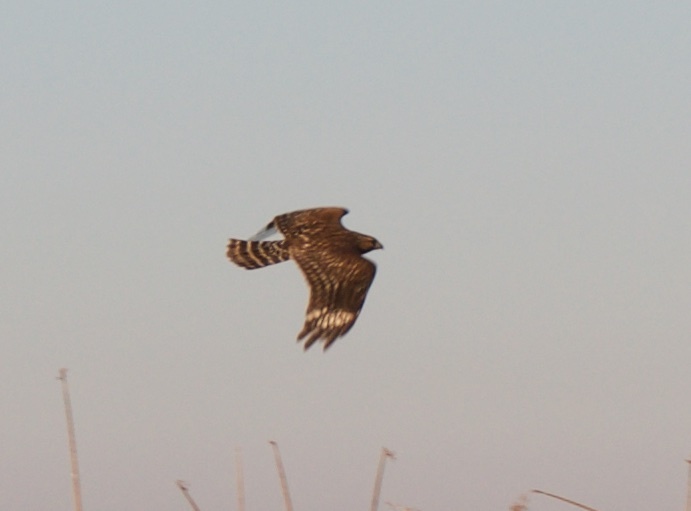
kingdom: Animalia
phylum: Chordata
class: Aves
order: Accipitriformes
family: Accipitridae
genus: Buteo
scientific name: Buteo lineatus
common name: Red-shouldered hawk
